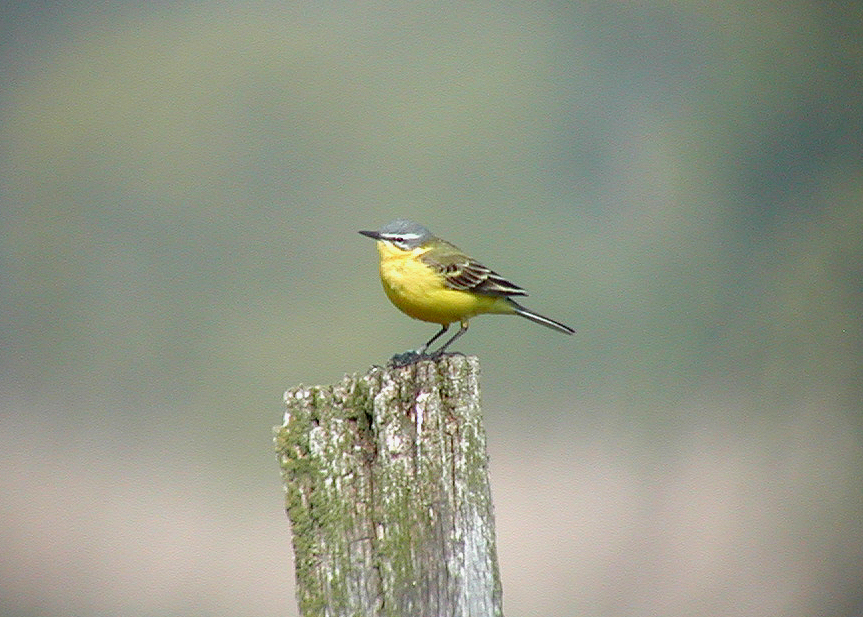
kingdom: Animalia
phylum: Chordata
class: Aves
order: Passeriformes
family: Motacillidae
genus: Motacilla
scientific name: Motacilla flava
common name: Western yellow wagtail
